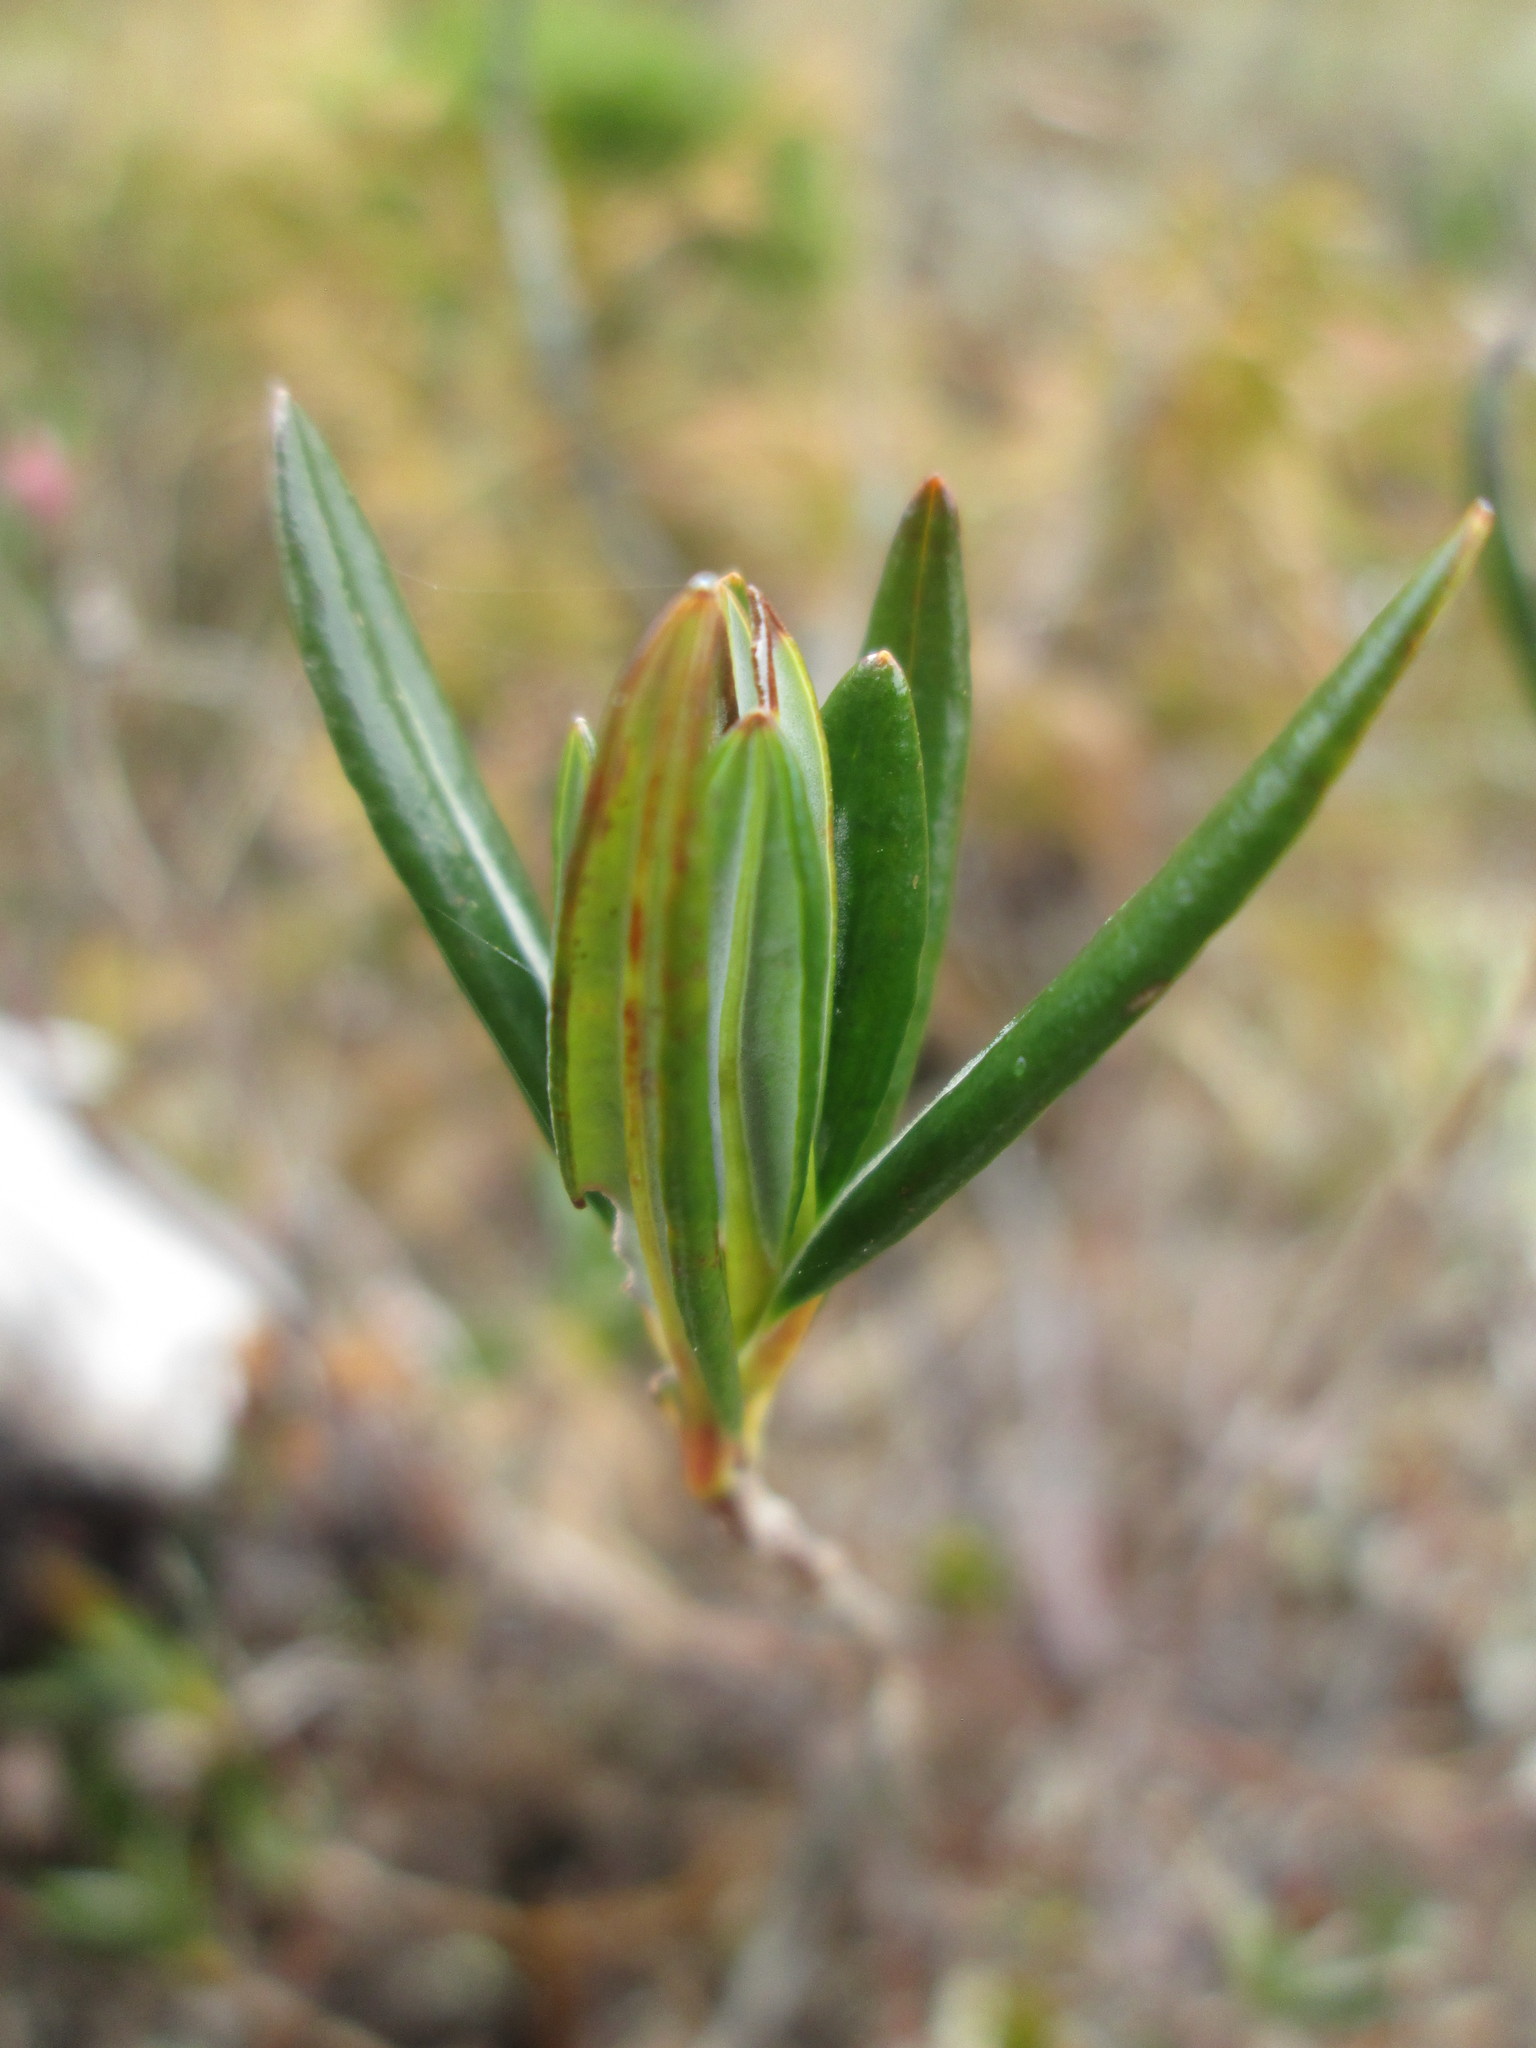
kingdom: Plantae
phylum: Tracheophyta
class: Magnoliopsida
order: Ericales
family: Ericaceae
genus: Kalmia
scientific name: Kalmia microphylla
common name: Alpine bog laurel
